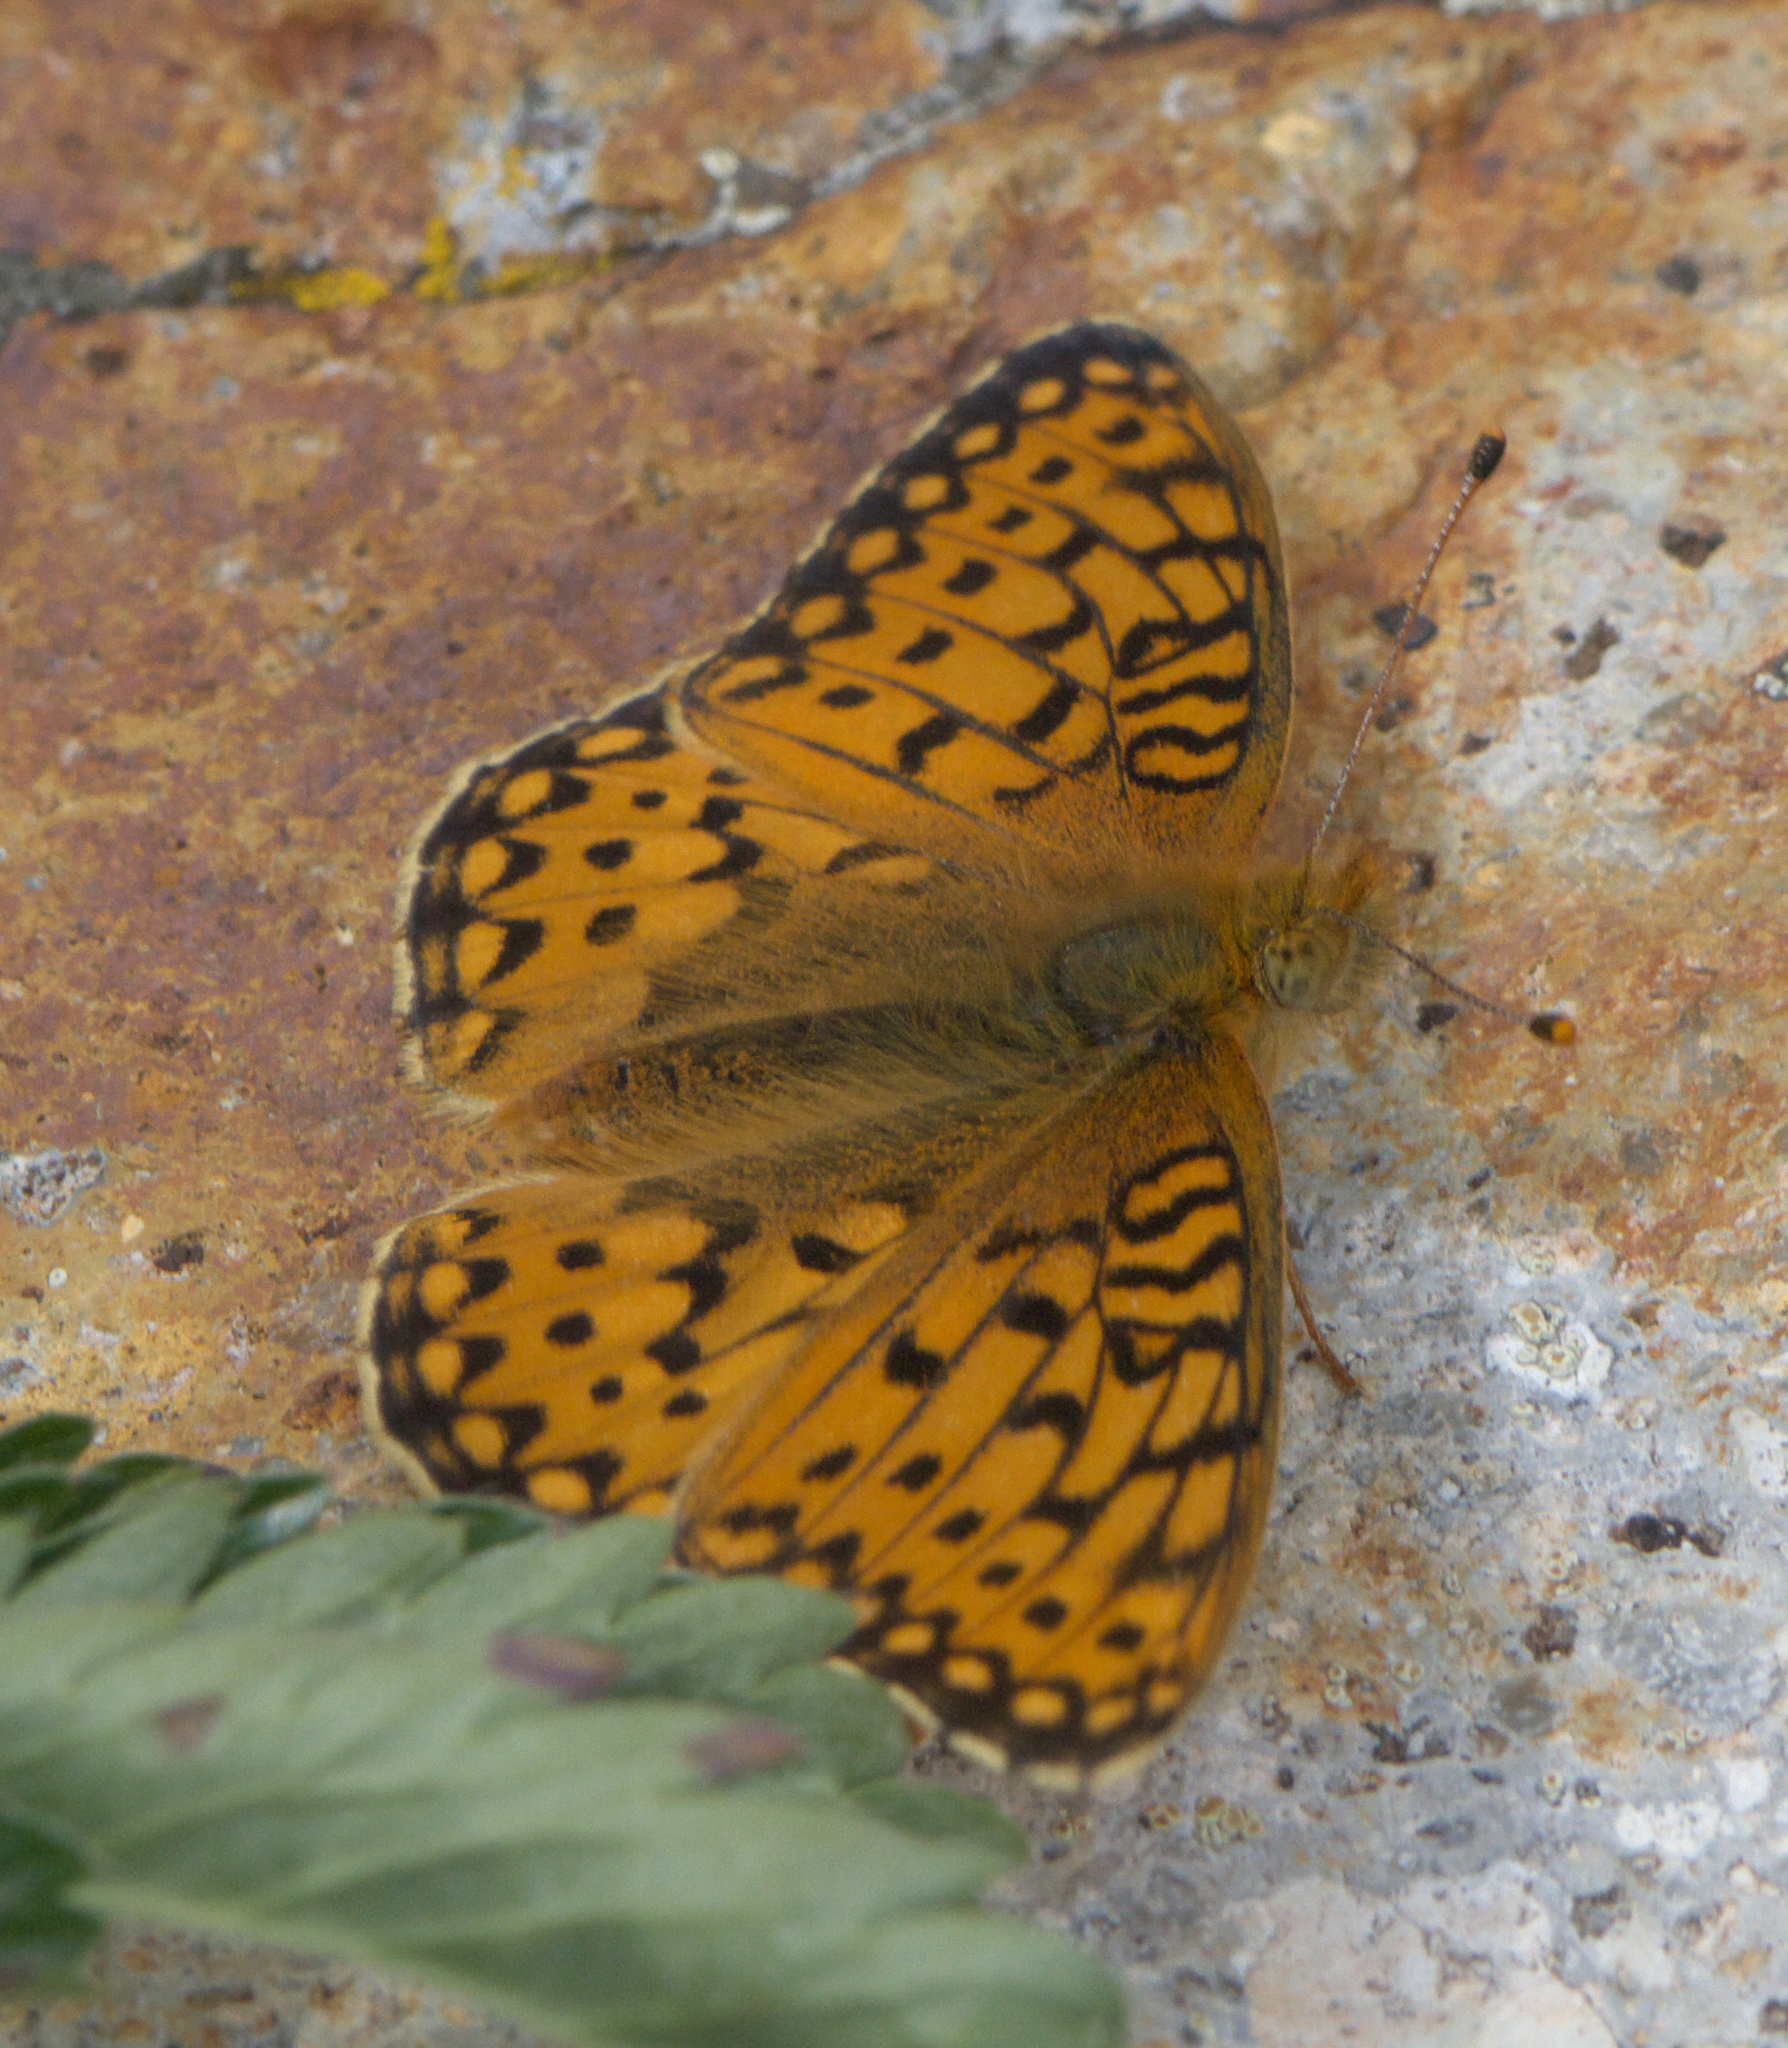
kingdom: Animalia
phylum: Arthropoda
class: Insecta
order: Lepidoptera
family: Nymphalidae
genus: Speyeria
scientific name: Speyeria mormonia
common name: Mormon fritillary
